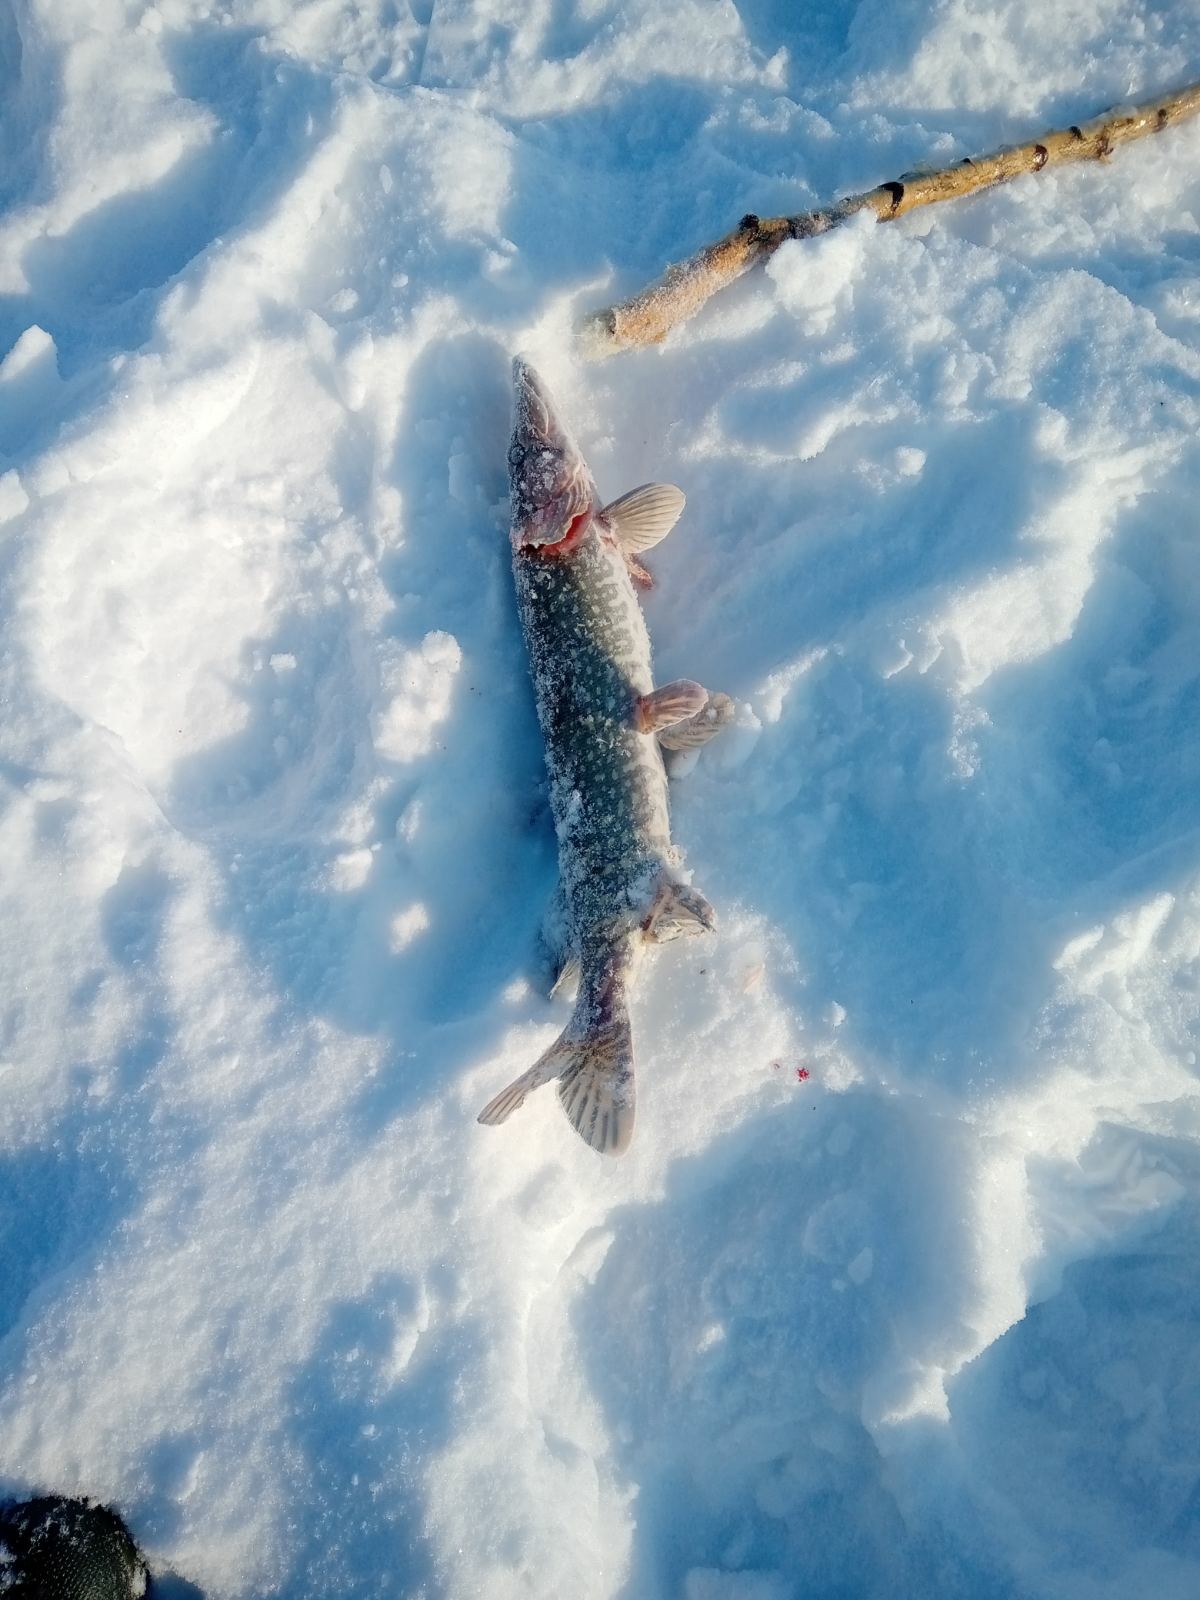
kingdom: Animalia
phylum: Chordata
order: Esociformes
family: Esocidae
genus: Esox
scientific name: Esox lucius
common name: Northern pike
